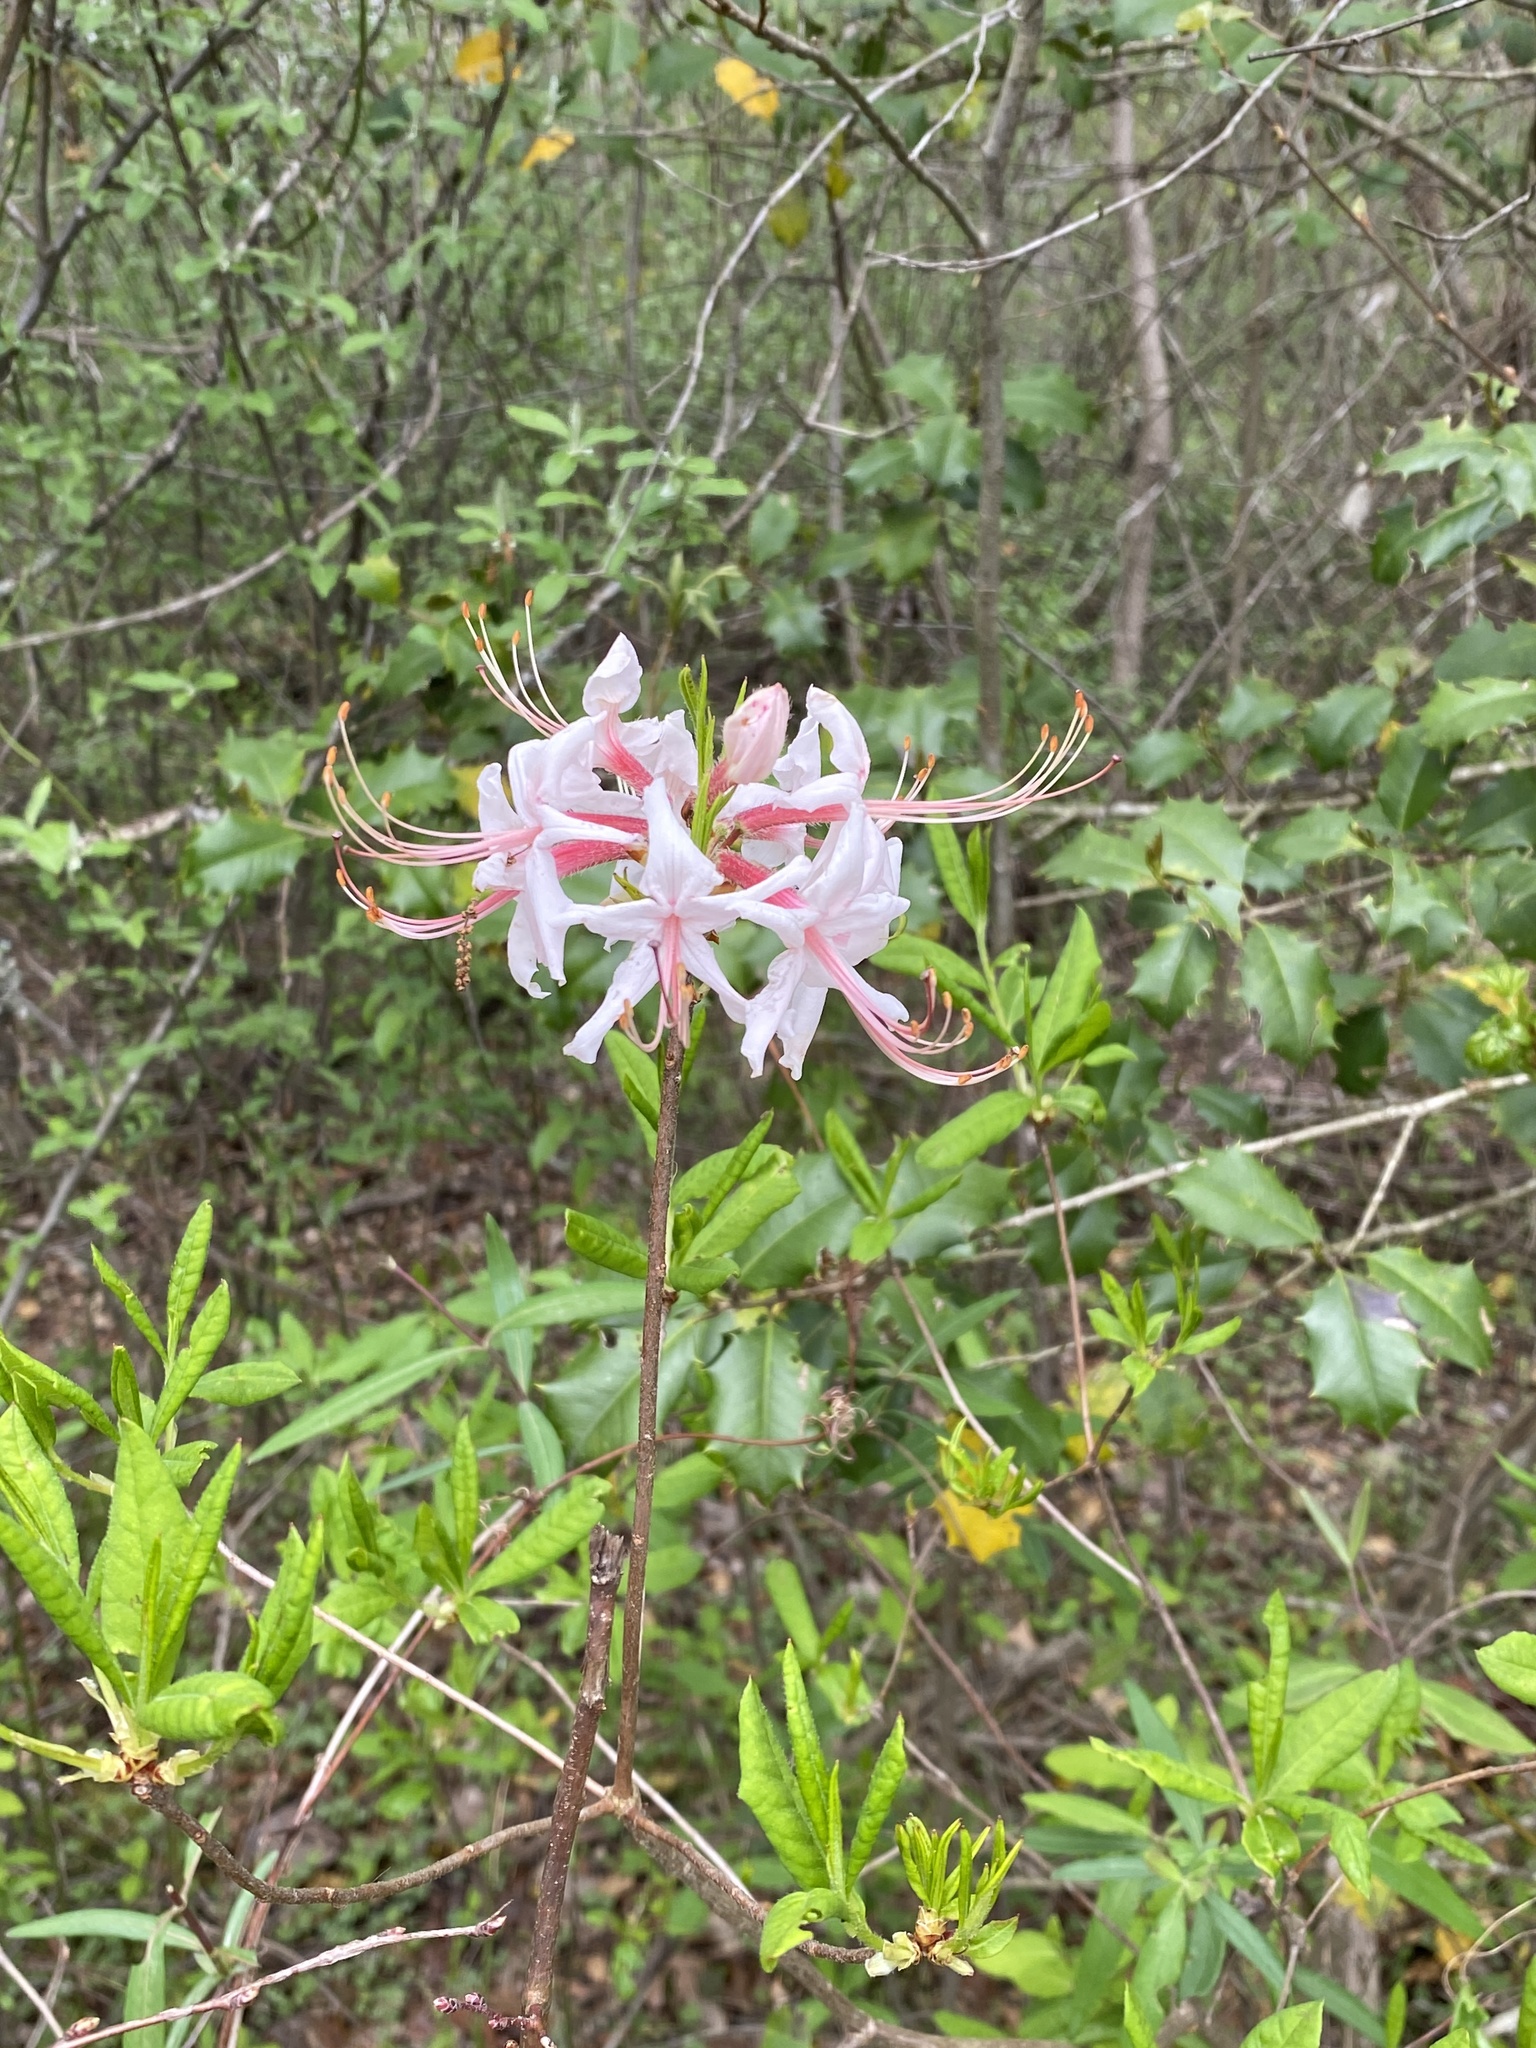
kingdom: Plantae
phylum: Tracheophyta
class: Magnoliopsida
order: Ericales
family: Ericaceae
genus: Rhododendron
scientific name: Rhododendron periclymenoides
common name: Election-pink
